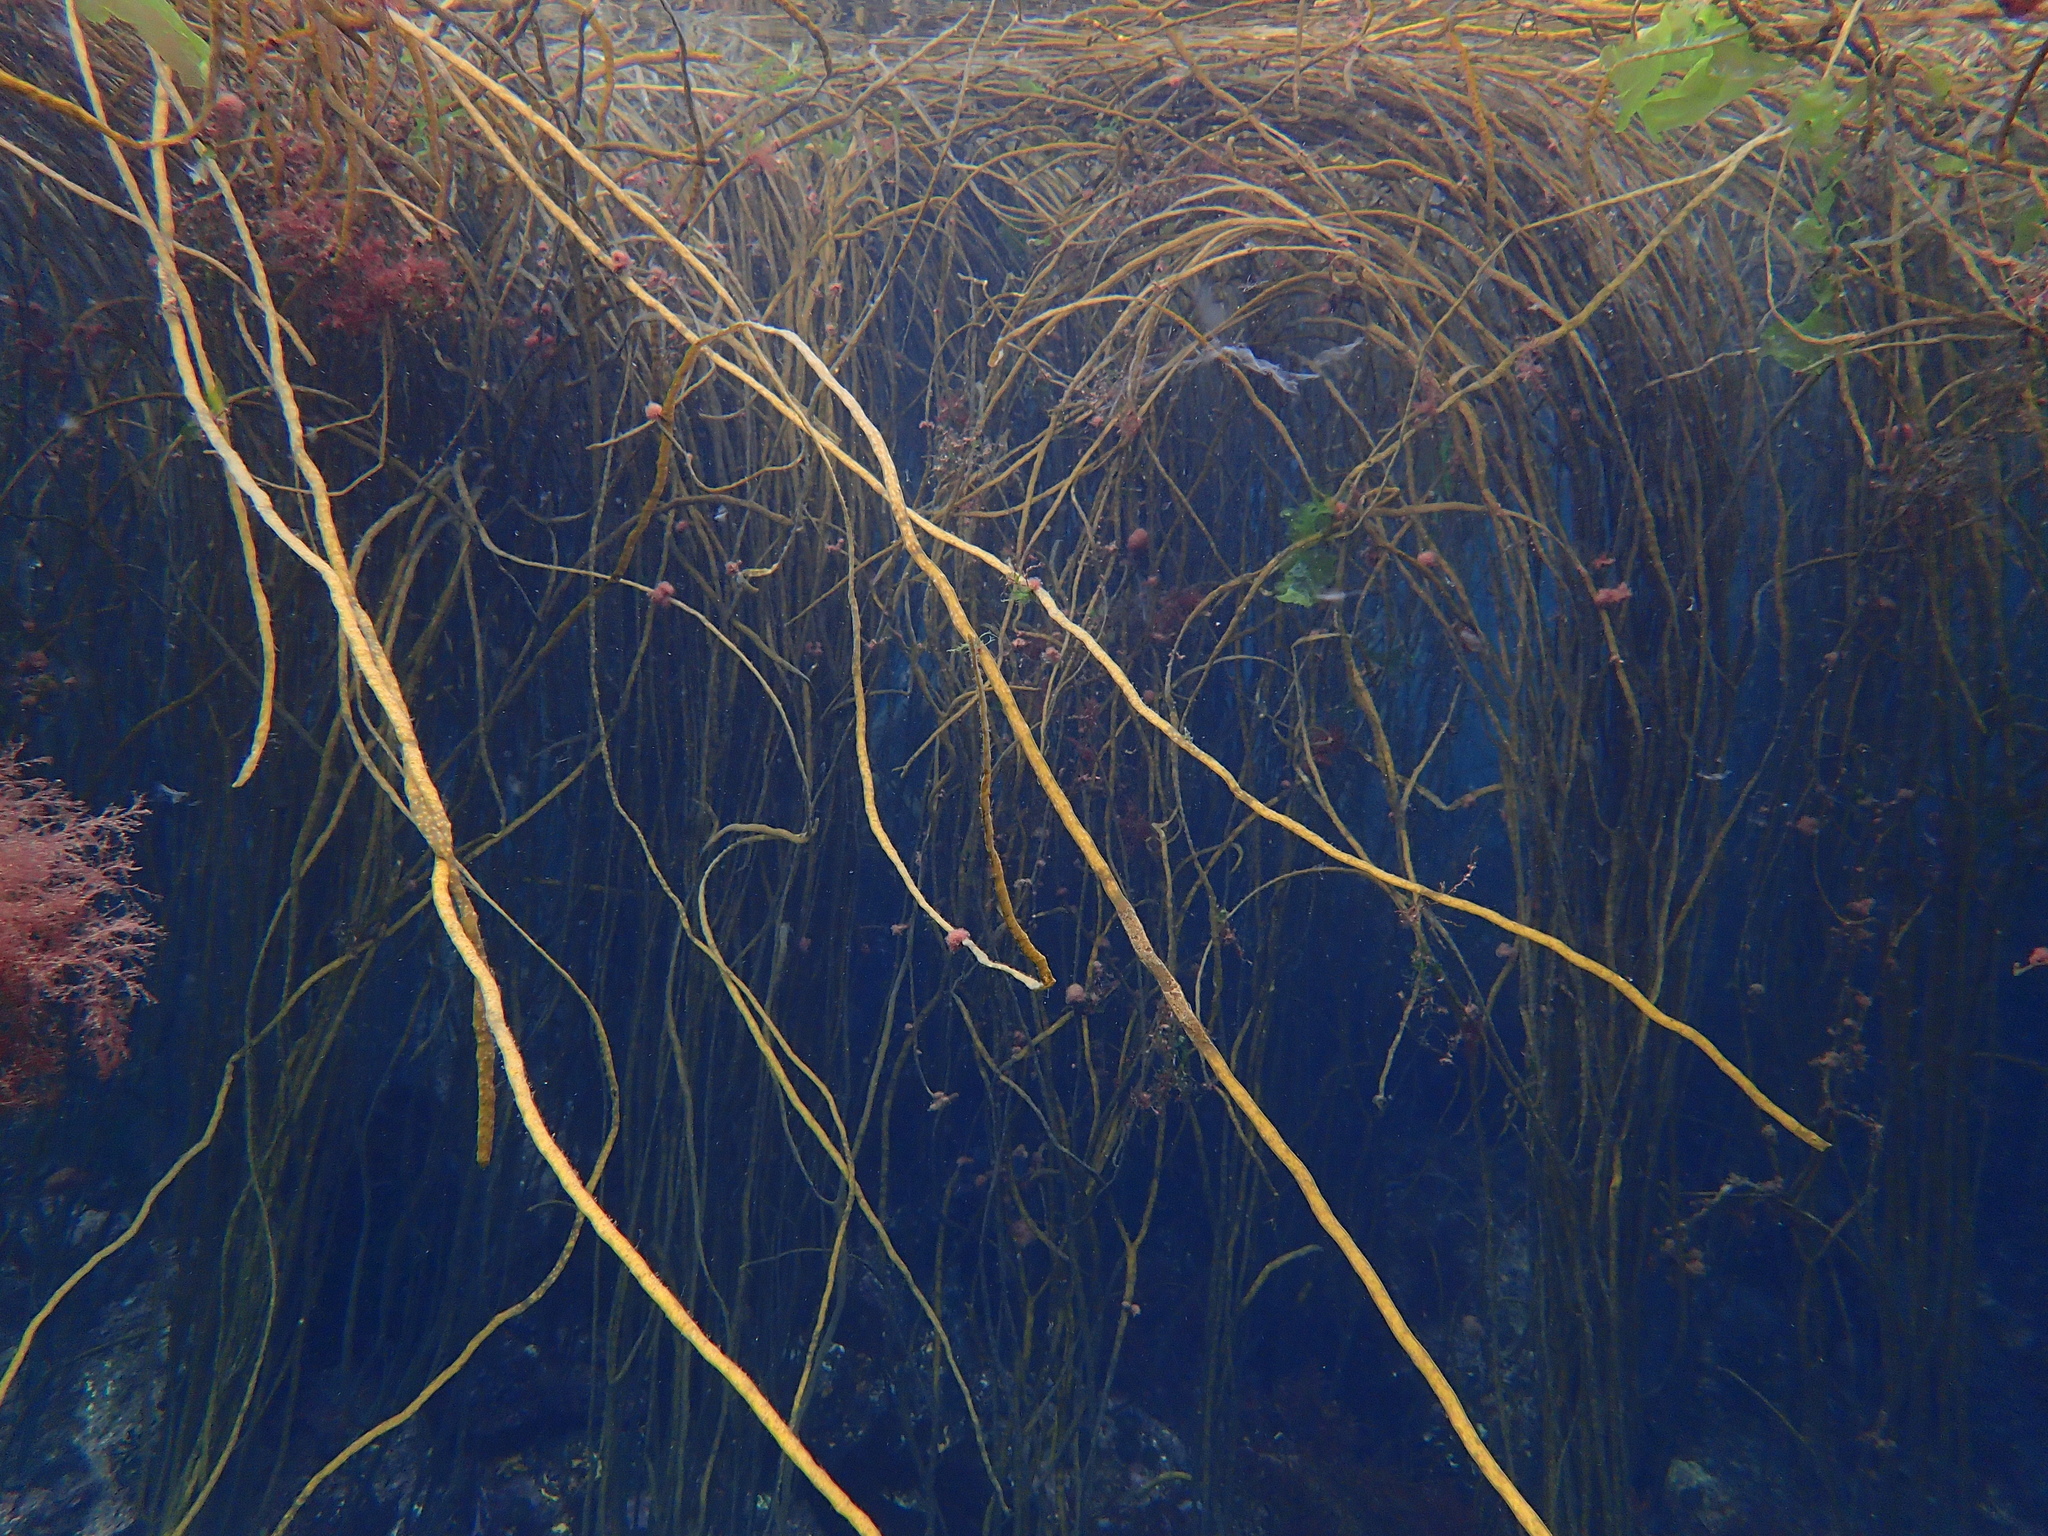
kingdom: Chromista
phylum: Ochrophyta
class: Phaeophyceae
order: Fucales
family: Himanthaliaceae
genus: Himanthalia
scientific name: Himanthalia elongata
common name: Sea-thong
